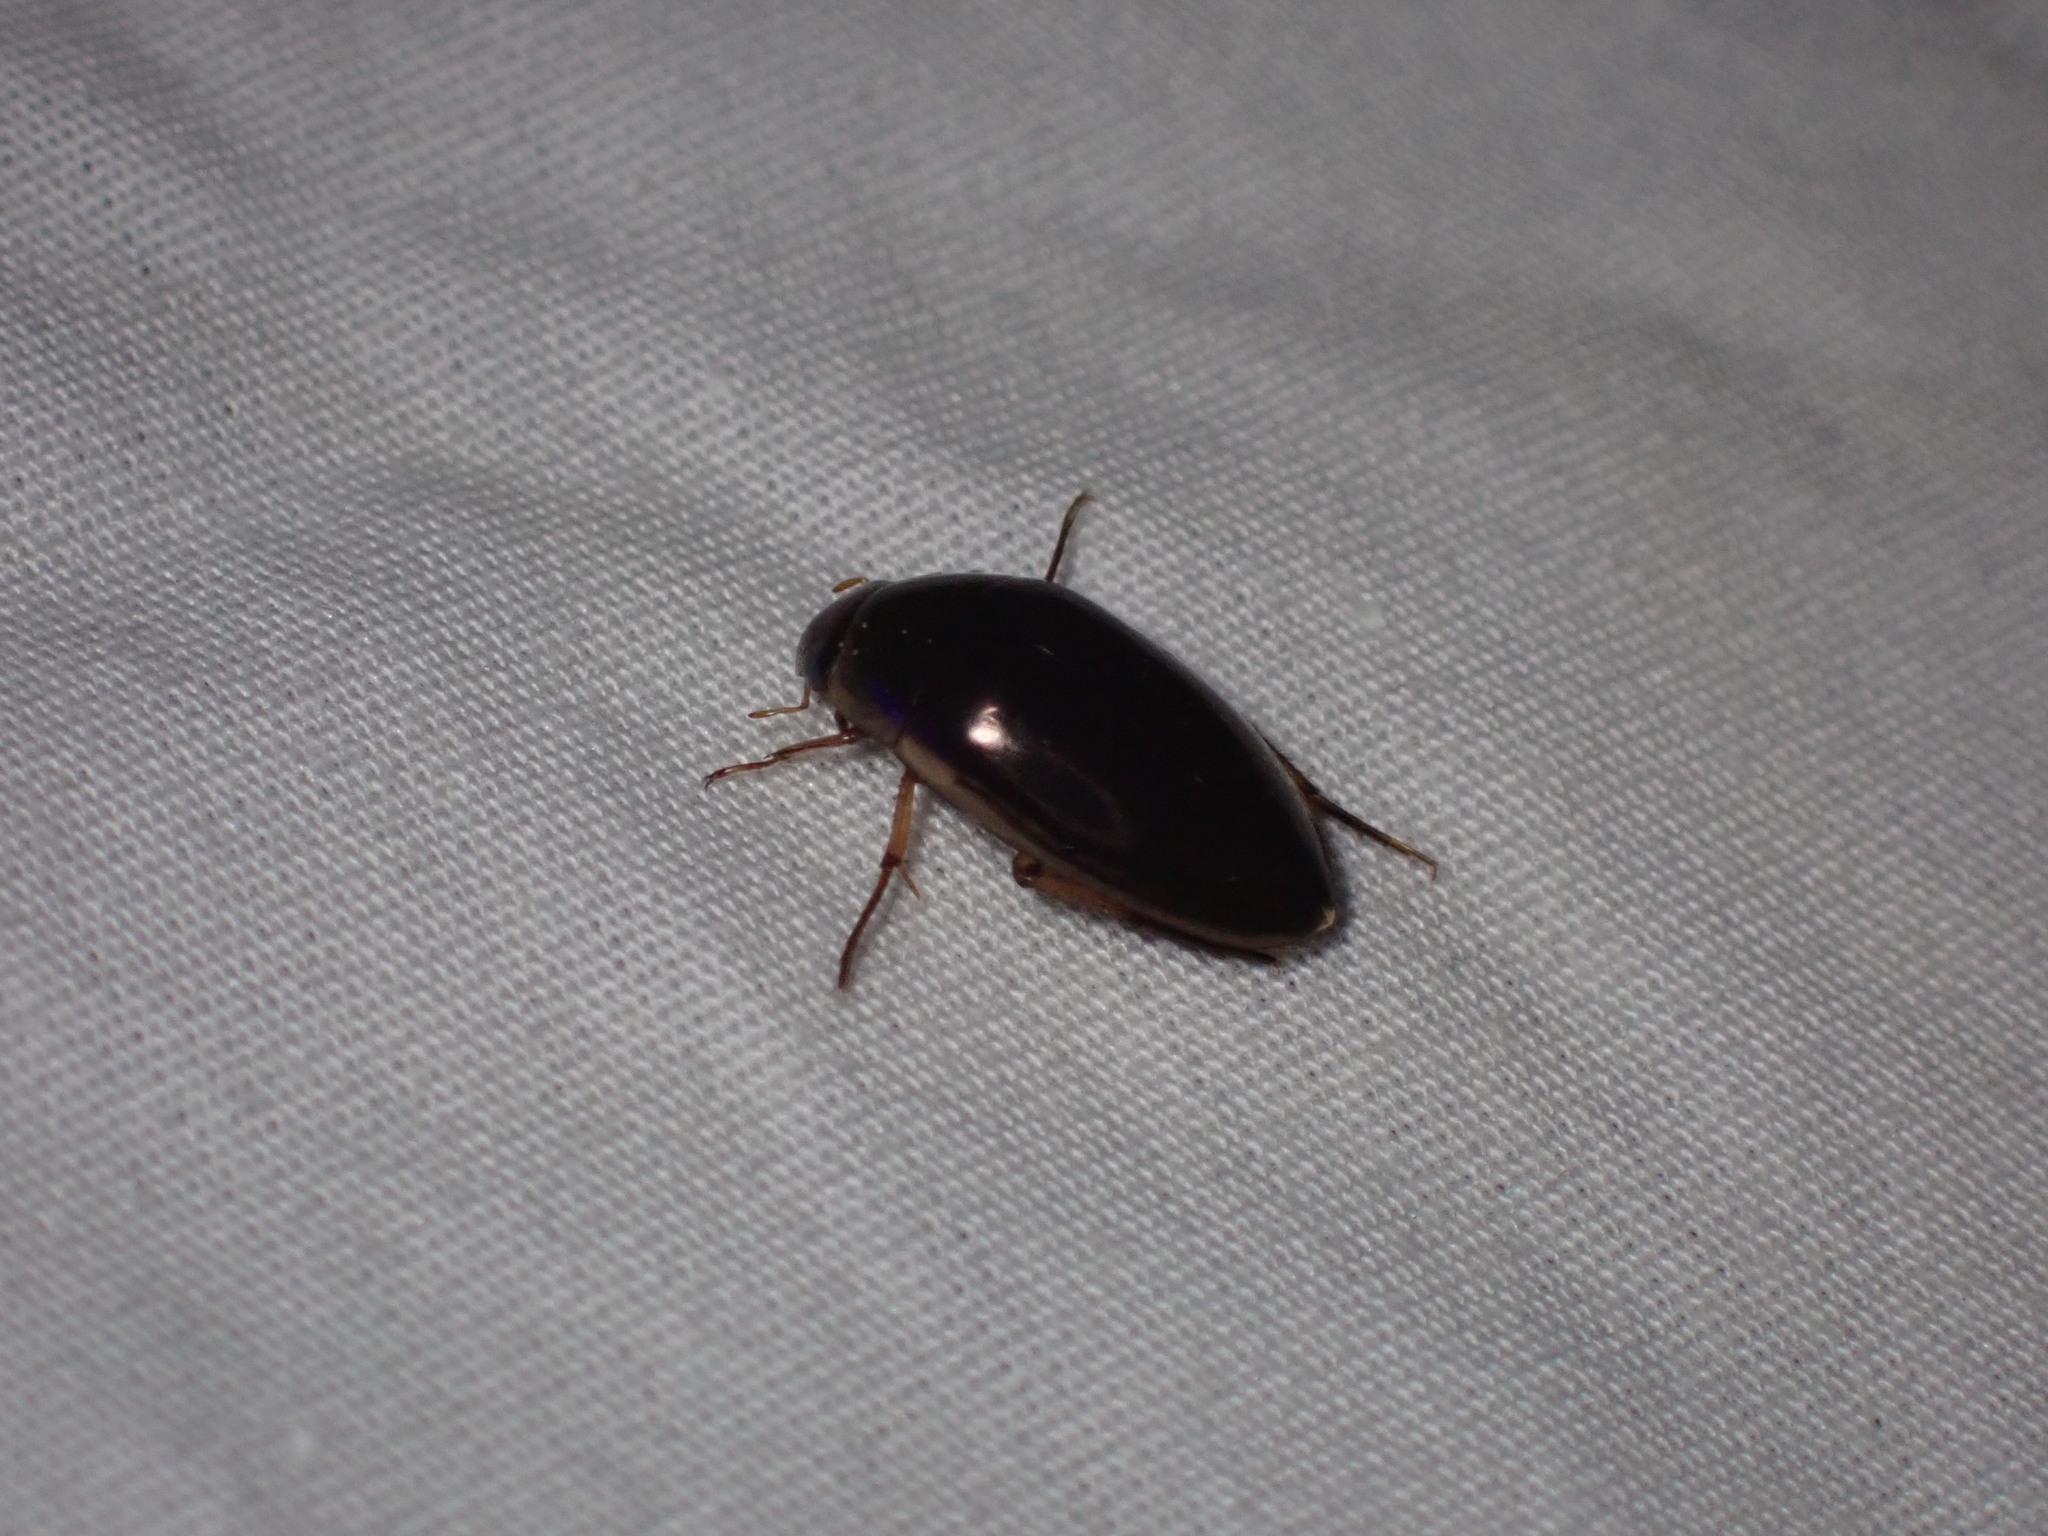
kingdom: Animalia
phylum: Arthropoda
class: Insecta
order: Coleoptera
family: Hydrophilidae
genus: Tropisternus
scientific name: Tropisternus lateralis
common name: Lateral-banded water scavenger beetle
